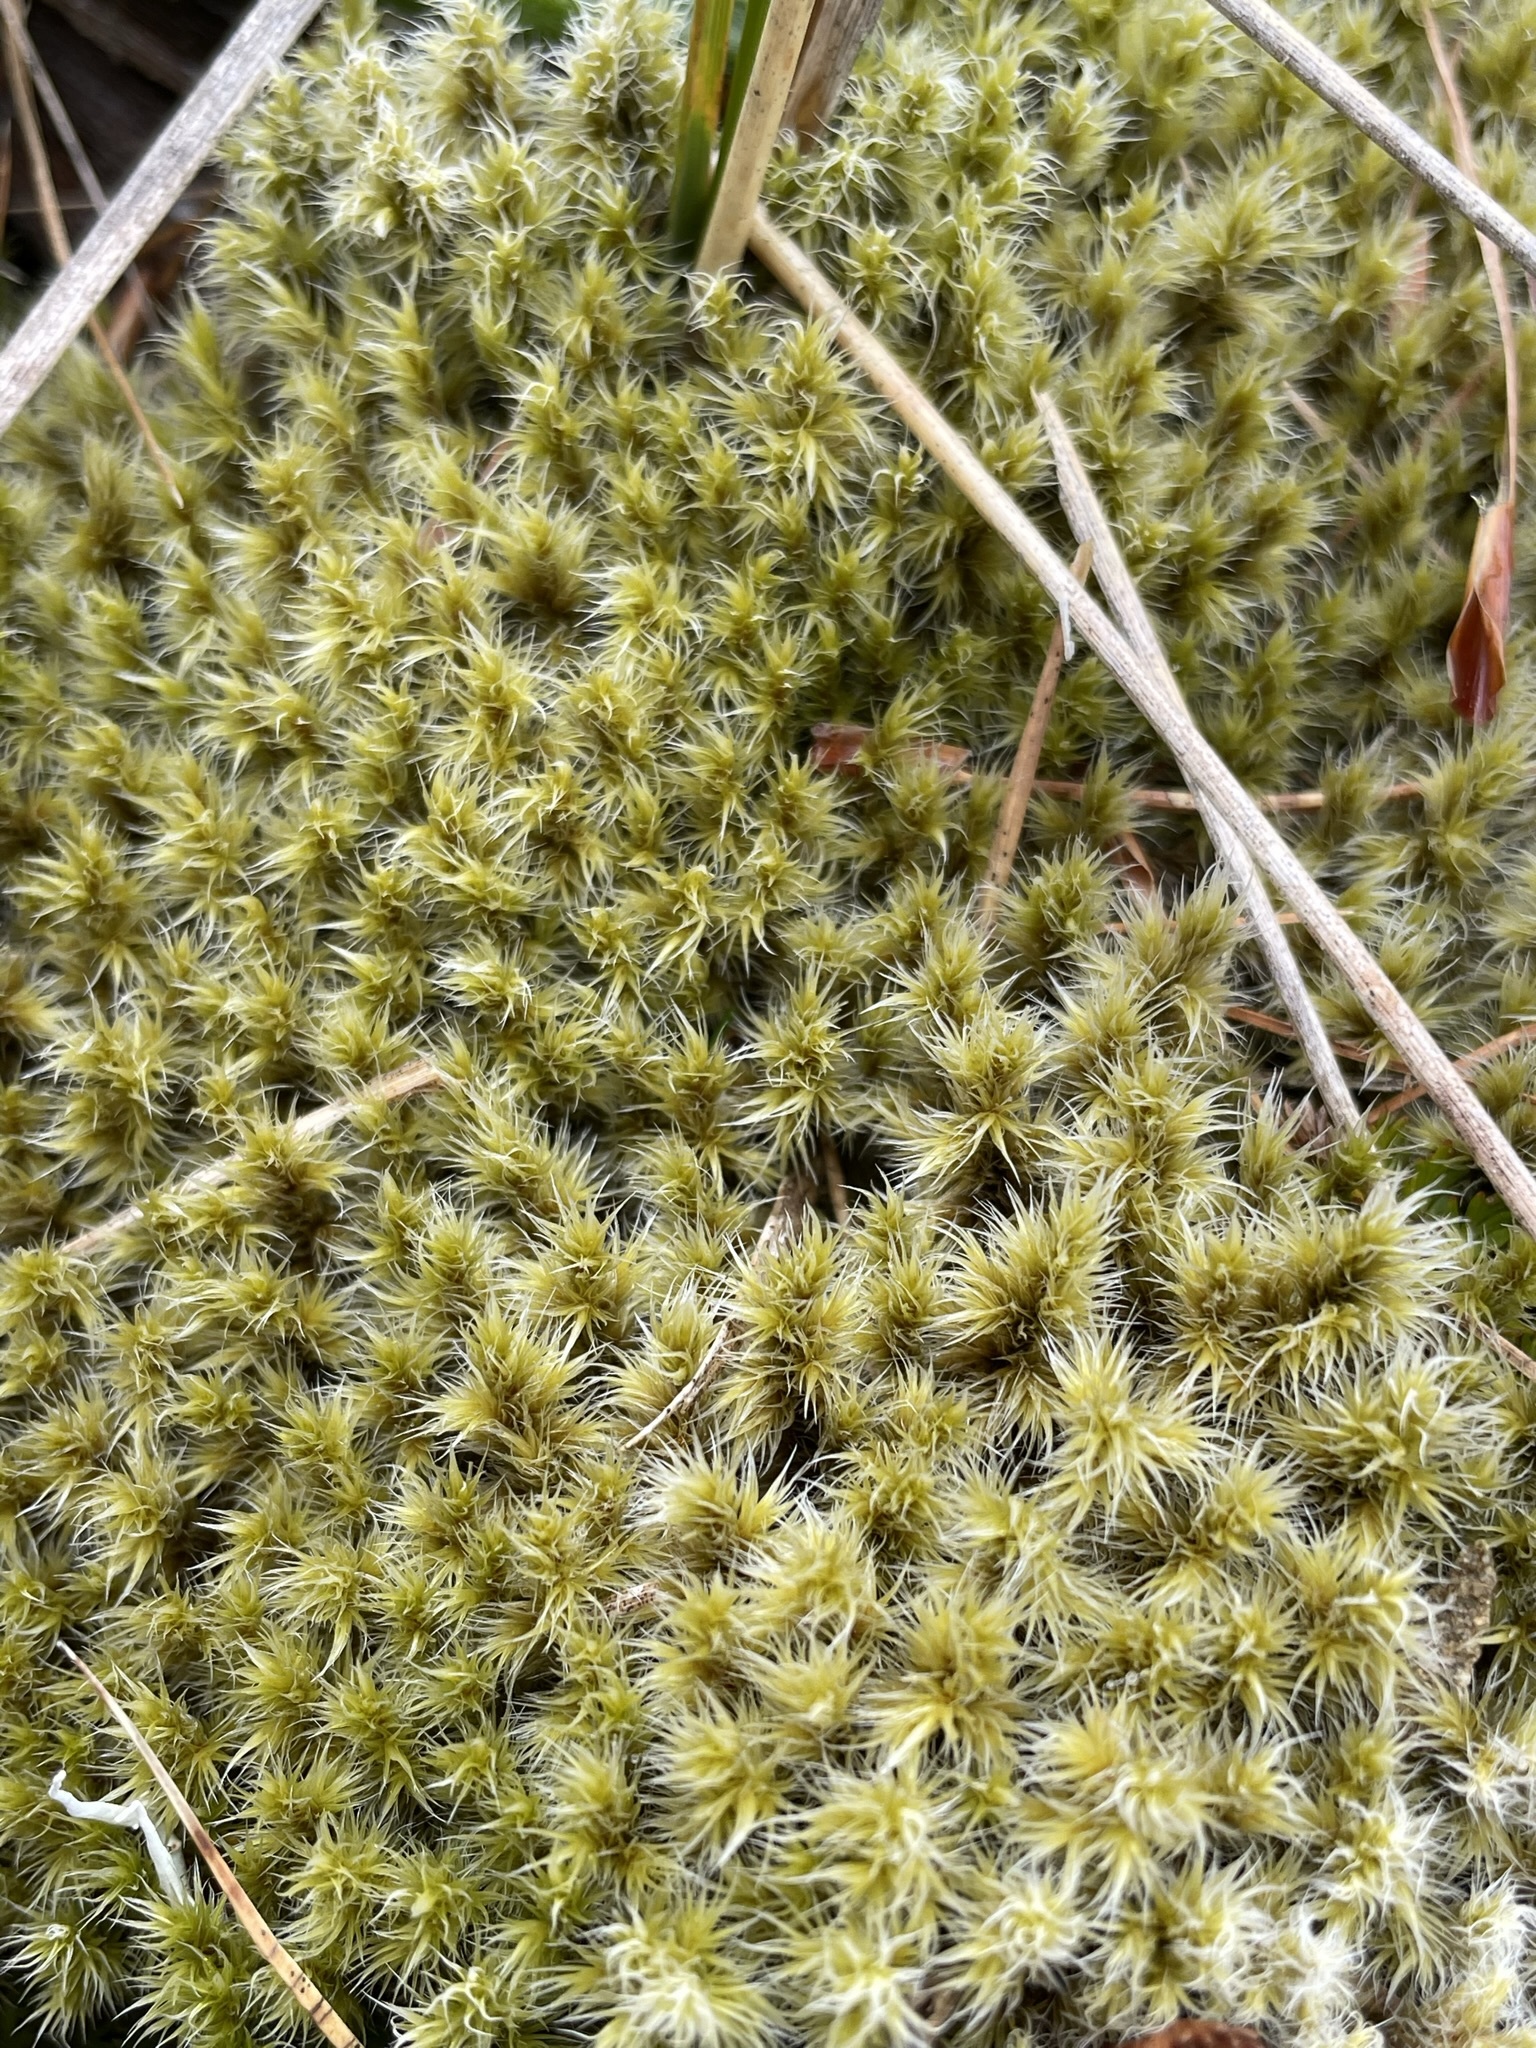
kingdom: Plantae
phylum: Bryophyta
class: Bryopsida
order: Grimmiales
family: Grimmiaceae
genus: Racomitrium
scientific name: Racomitrium lanuginosum
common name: Hoary rock moss
